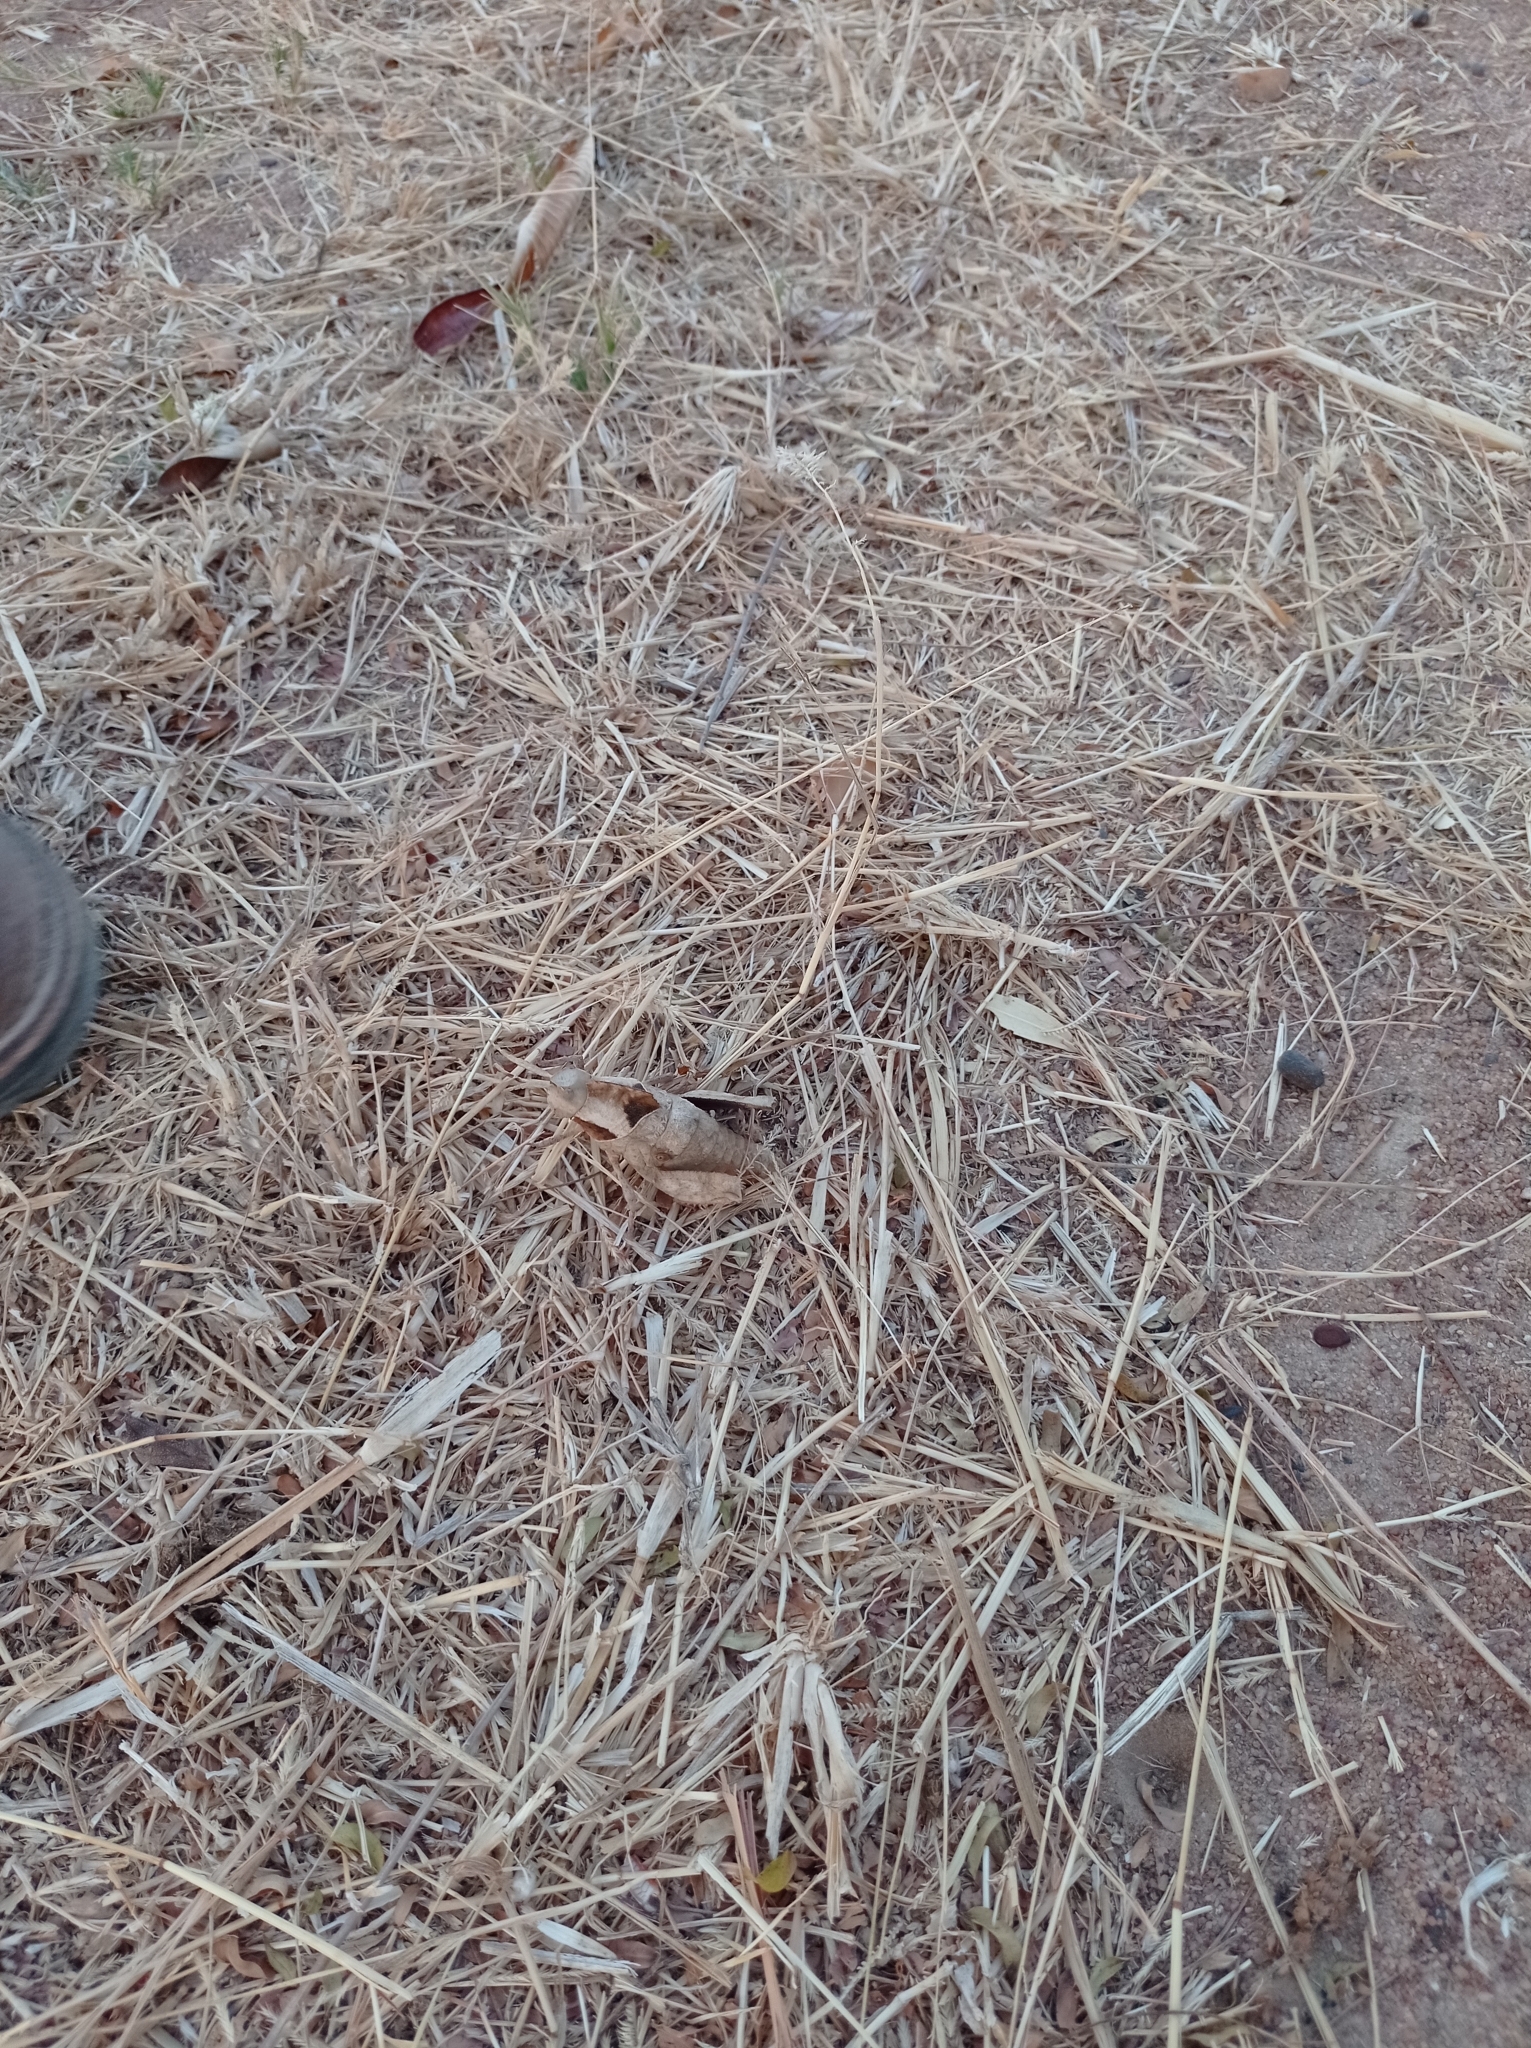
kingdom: Animalia
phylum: Arthropoda
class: Insecta
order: Orthoptera
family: Pamphagidae
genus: Xiphoceriana
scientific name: Xiphoceriana atrox
